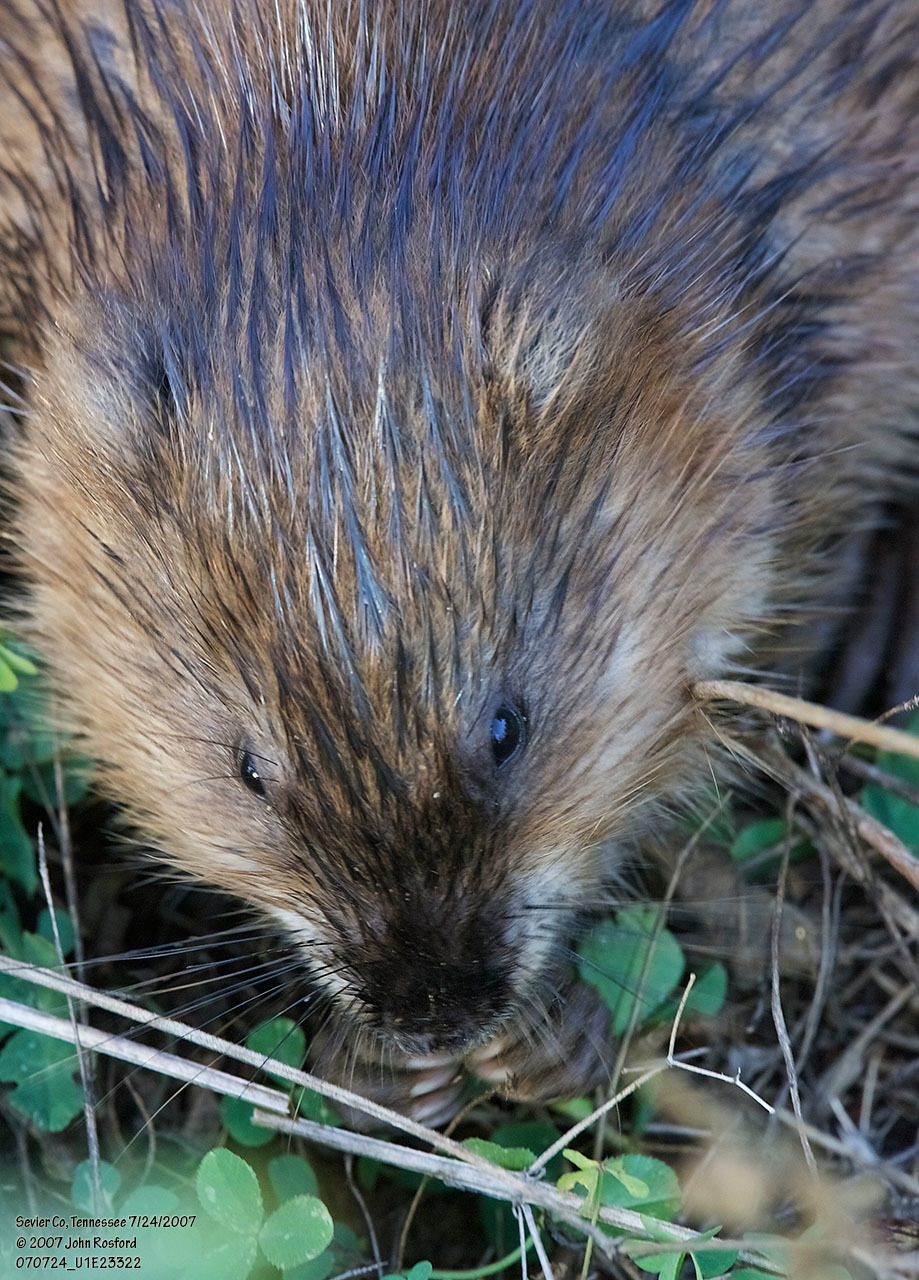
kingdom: Animalia
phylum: Chordata
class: Mammalia
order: Rodentia
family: Cricetidae
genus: Ondatra
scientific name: Ondatra zibethicus
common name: Muskrat
